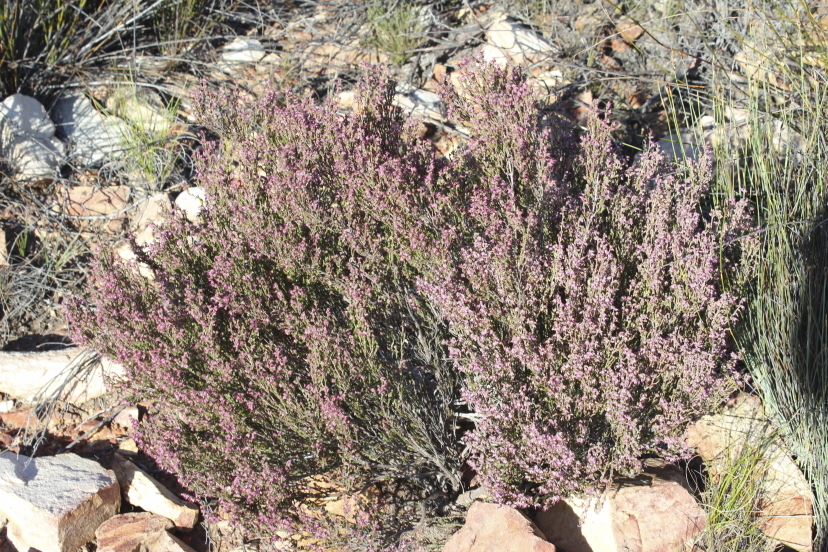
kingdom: Plantae
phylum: Tracheophyta
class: Magnoliopsida
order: Ericales
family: Ericaceae
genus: Erica
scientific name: Erica anguliger
